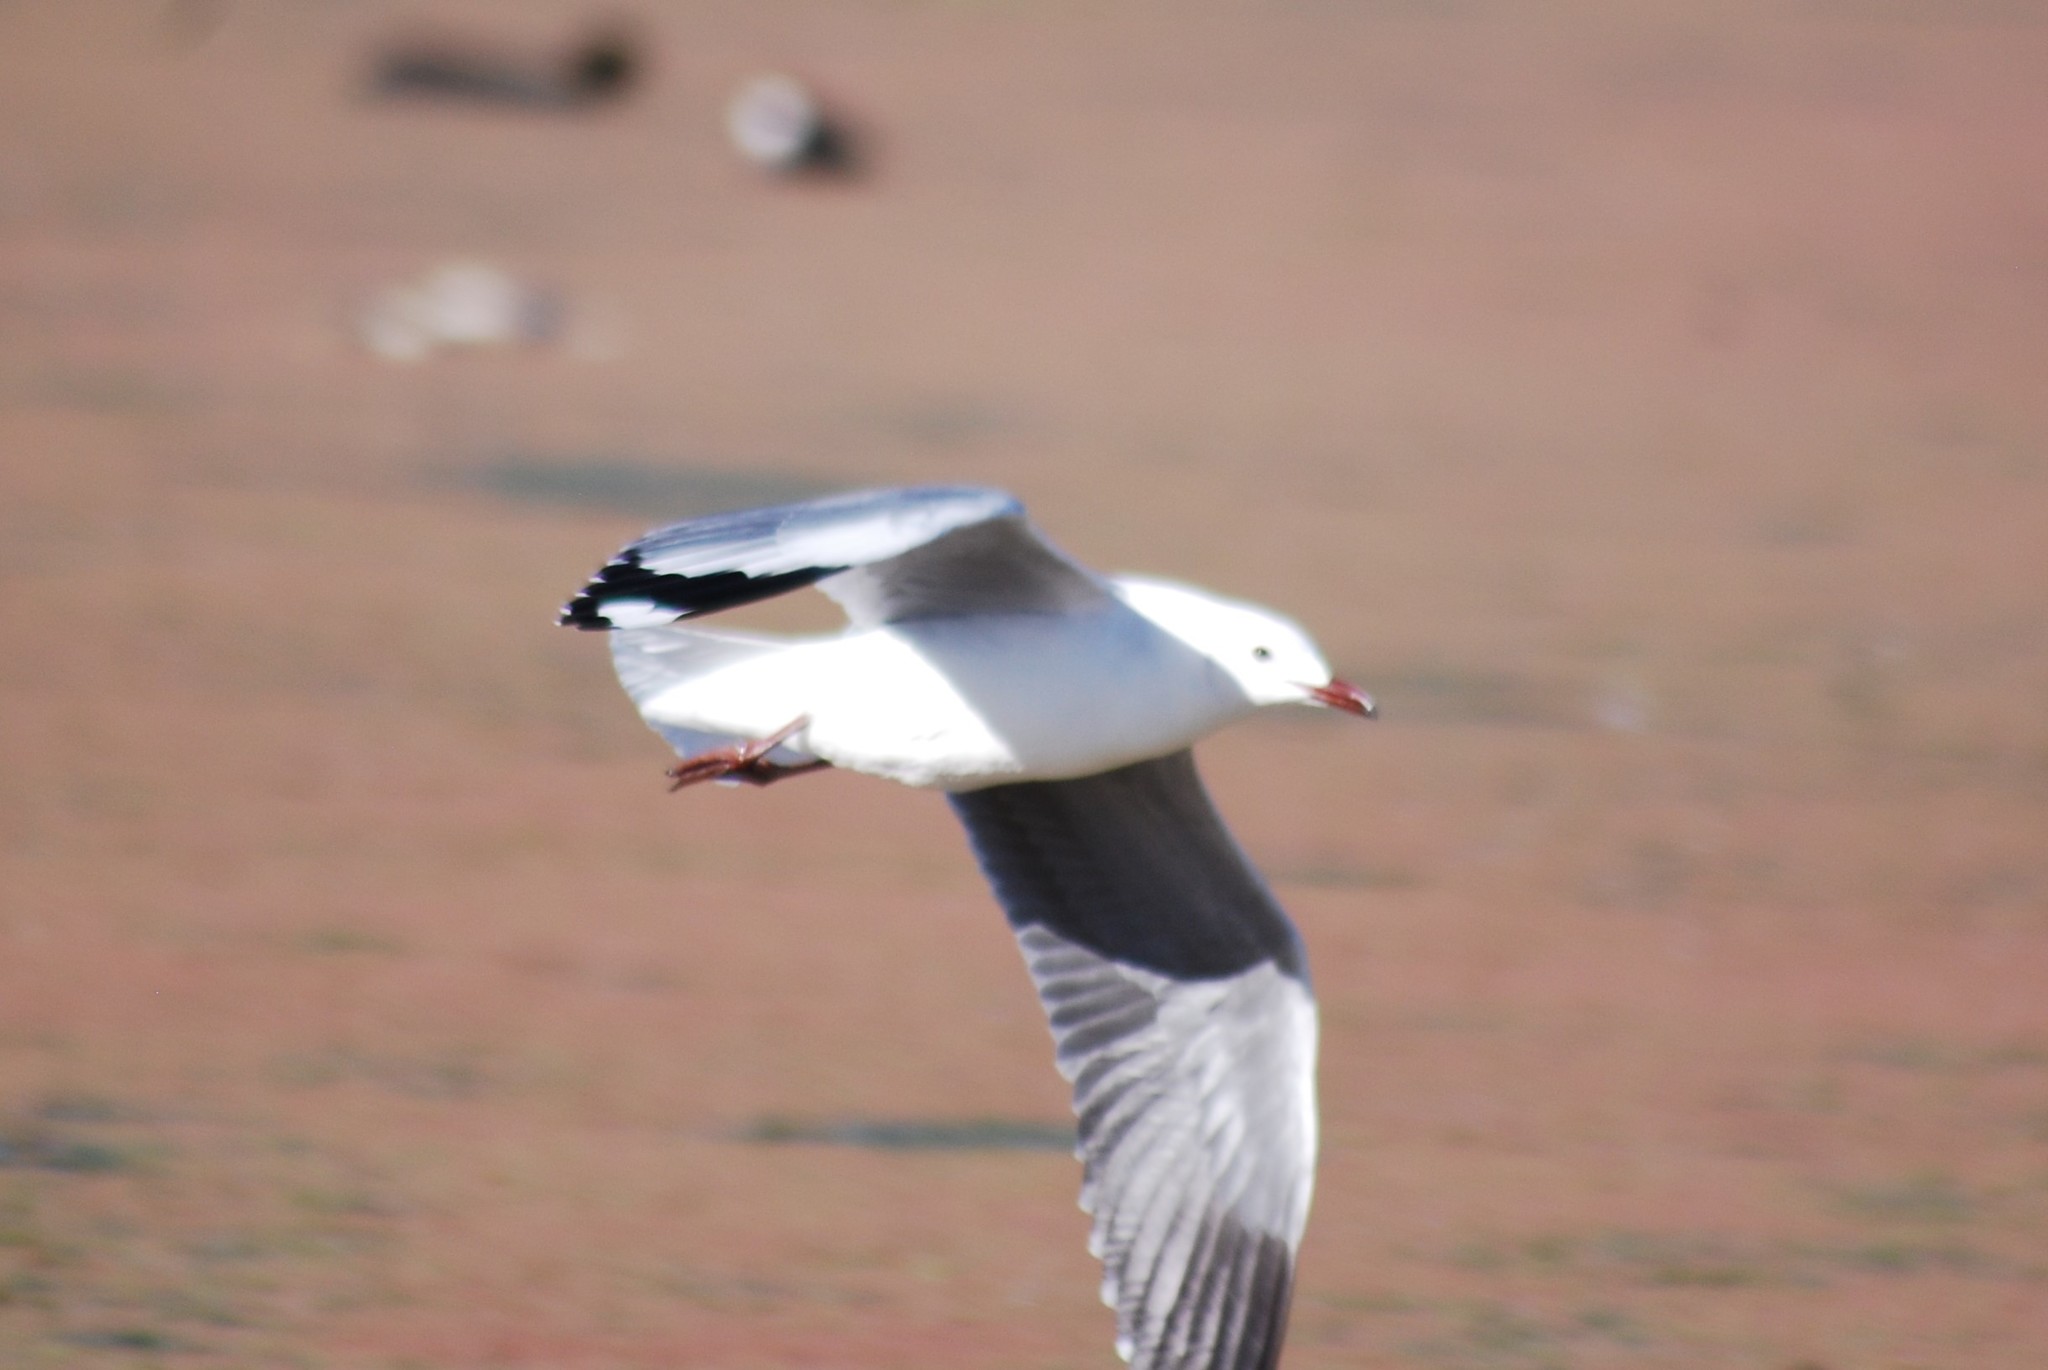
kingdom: Animalia
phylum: Chordata
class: Aves
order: Charadriiformes
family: Laridae
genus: Chroicocephalus
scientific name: Chroicocephalus hartlaubii
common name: Hartlaub's gull
